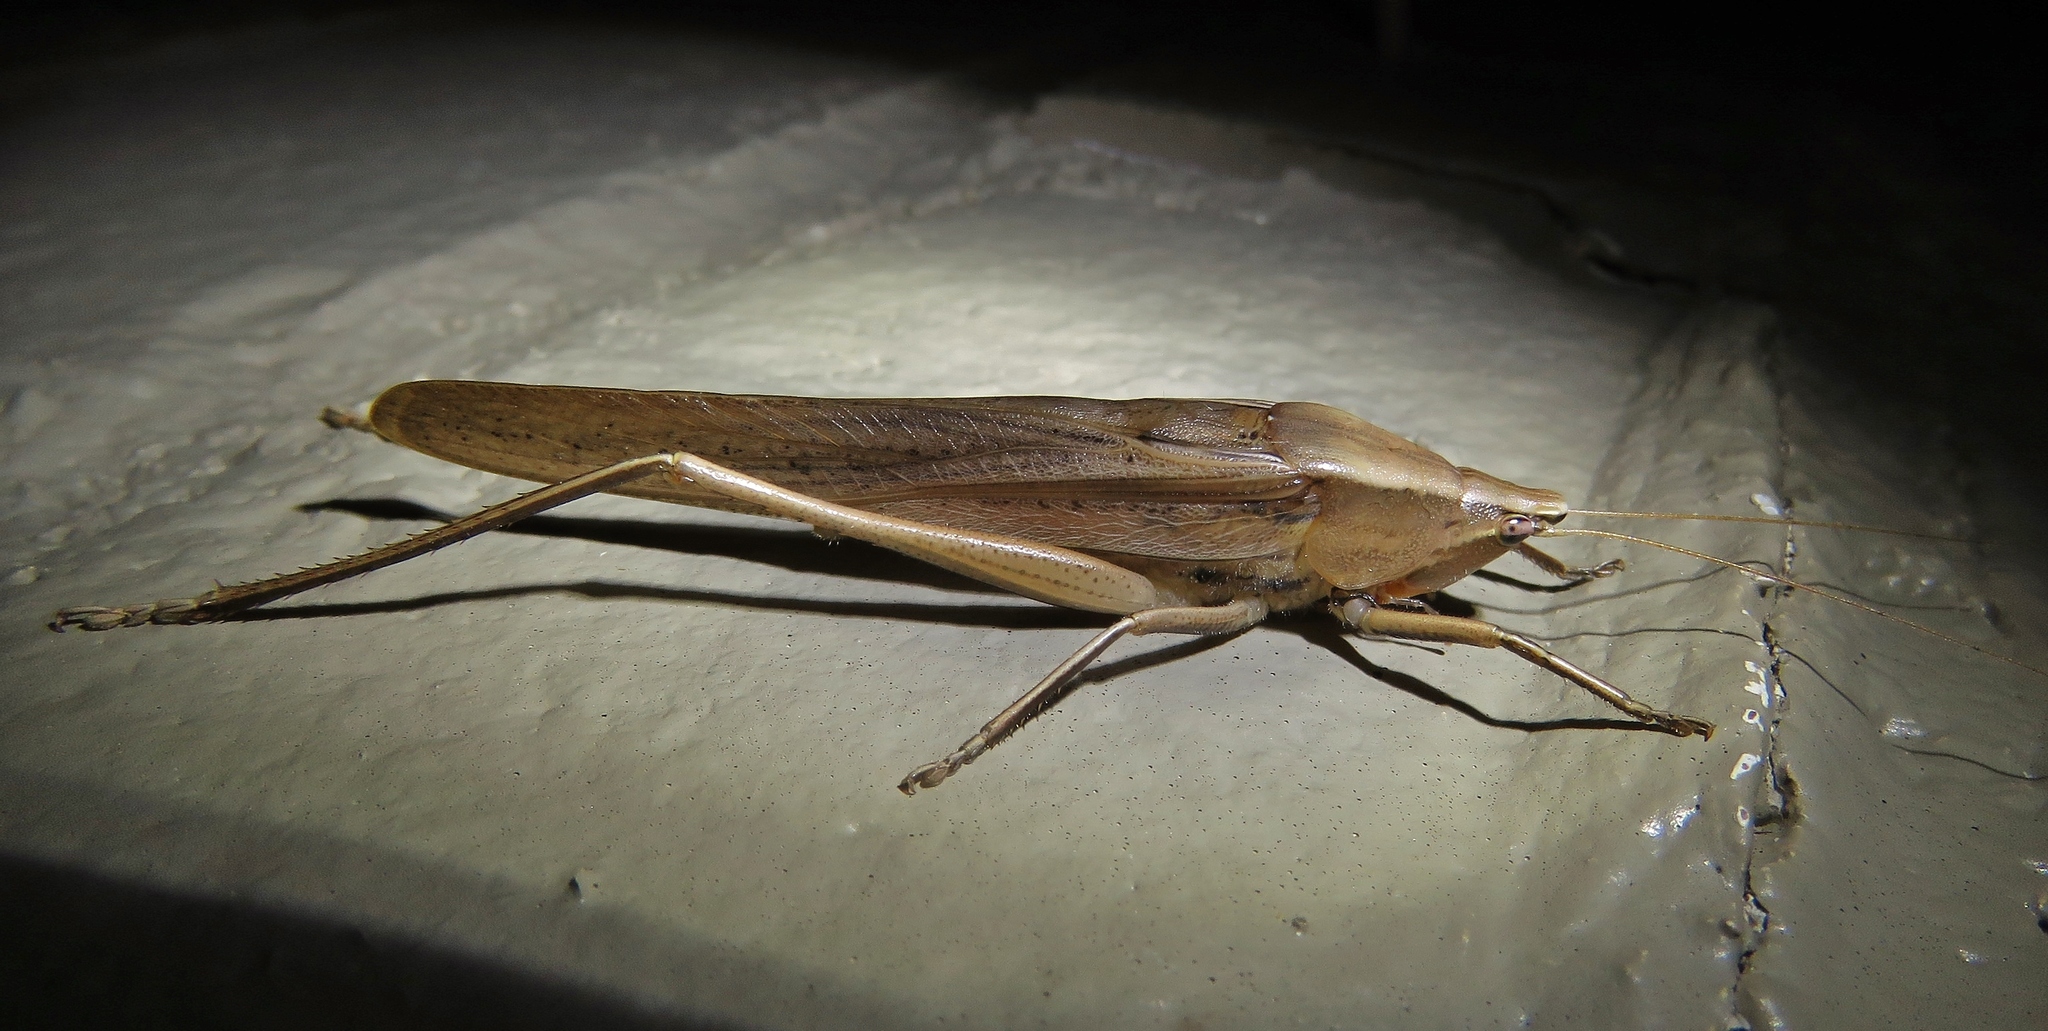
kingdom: Animalia
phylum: Arthropoda
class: Insecta
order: Orthoptera
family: Tettigoniidae
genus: Neoconocephalus
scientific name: Neoconocephalus triops
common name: Broad-tipped conehead
